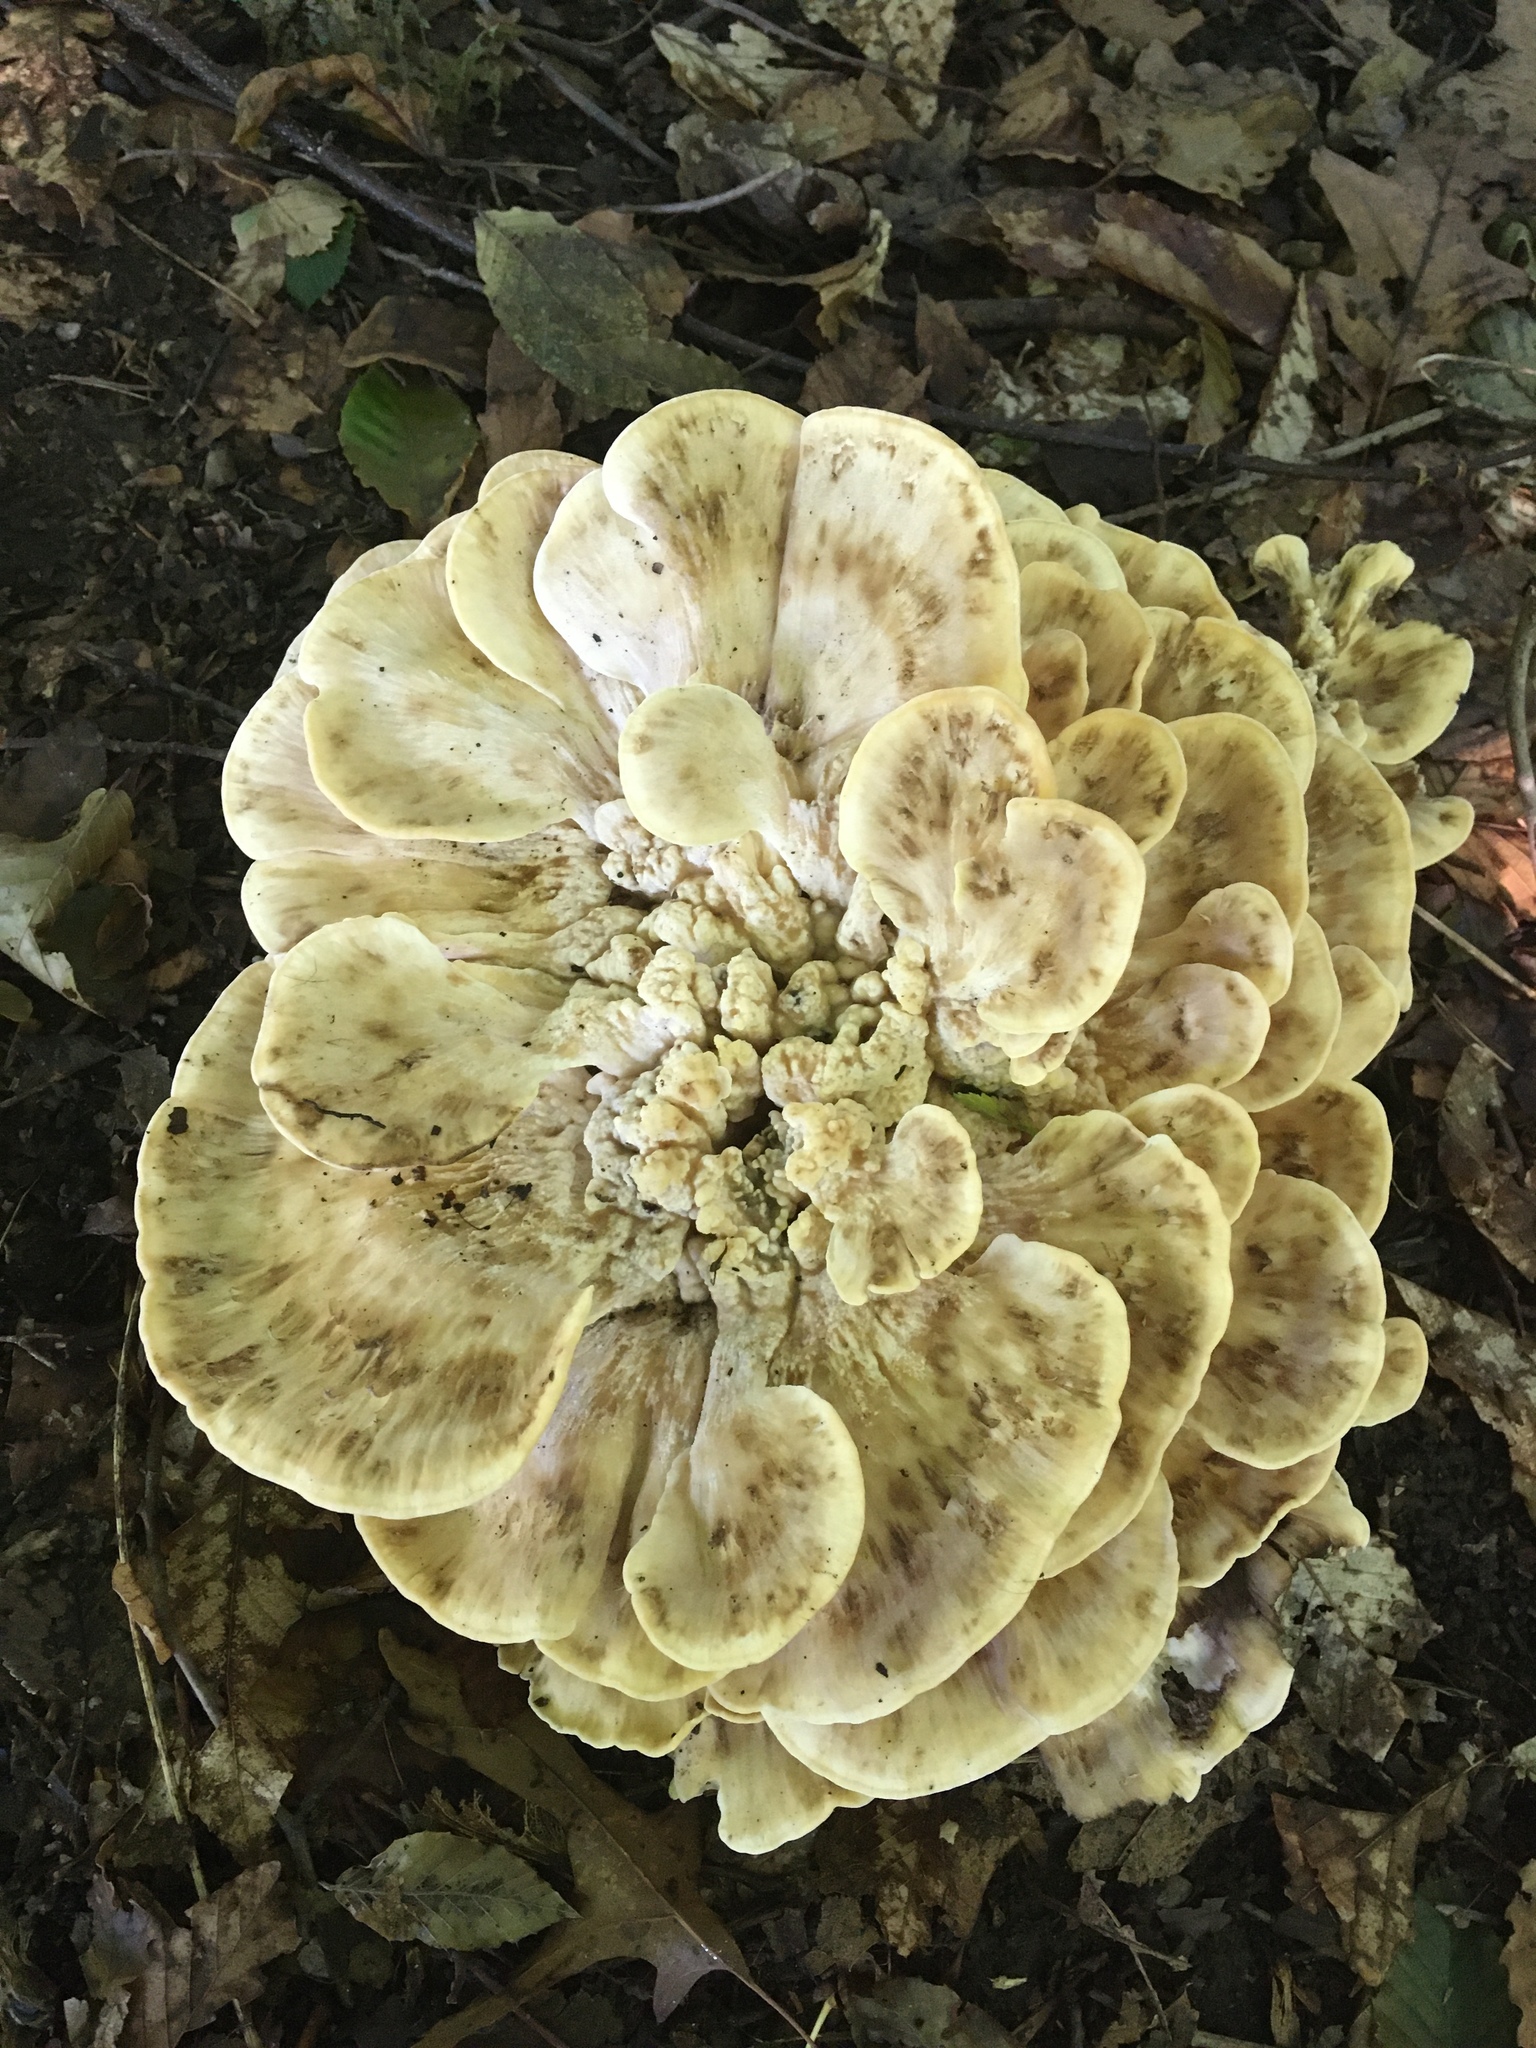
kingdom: Fungi
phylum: Basidiomycota
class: Agaricomycetes
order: Polyporales
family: Meripilaceae
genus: Meripilus
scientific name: Meripilus sumstinei
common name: Black-staining polypore
